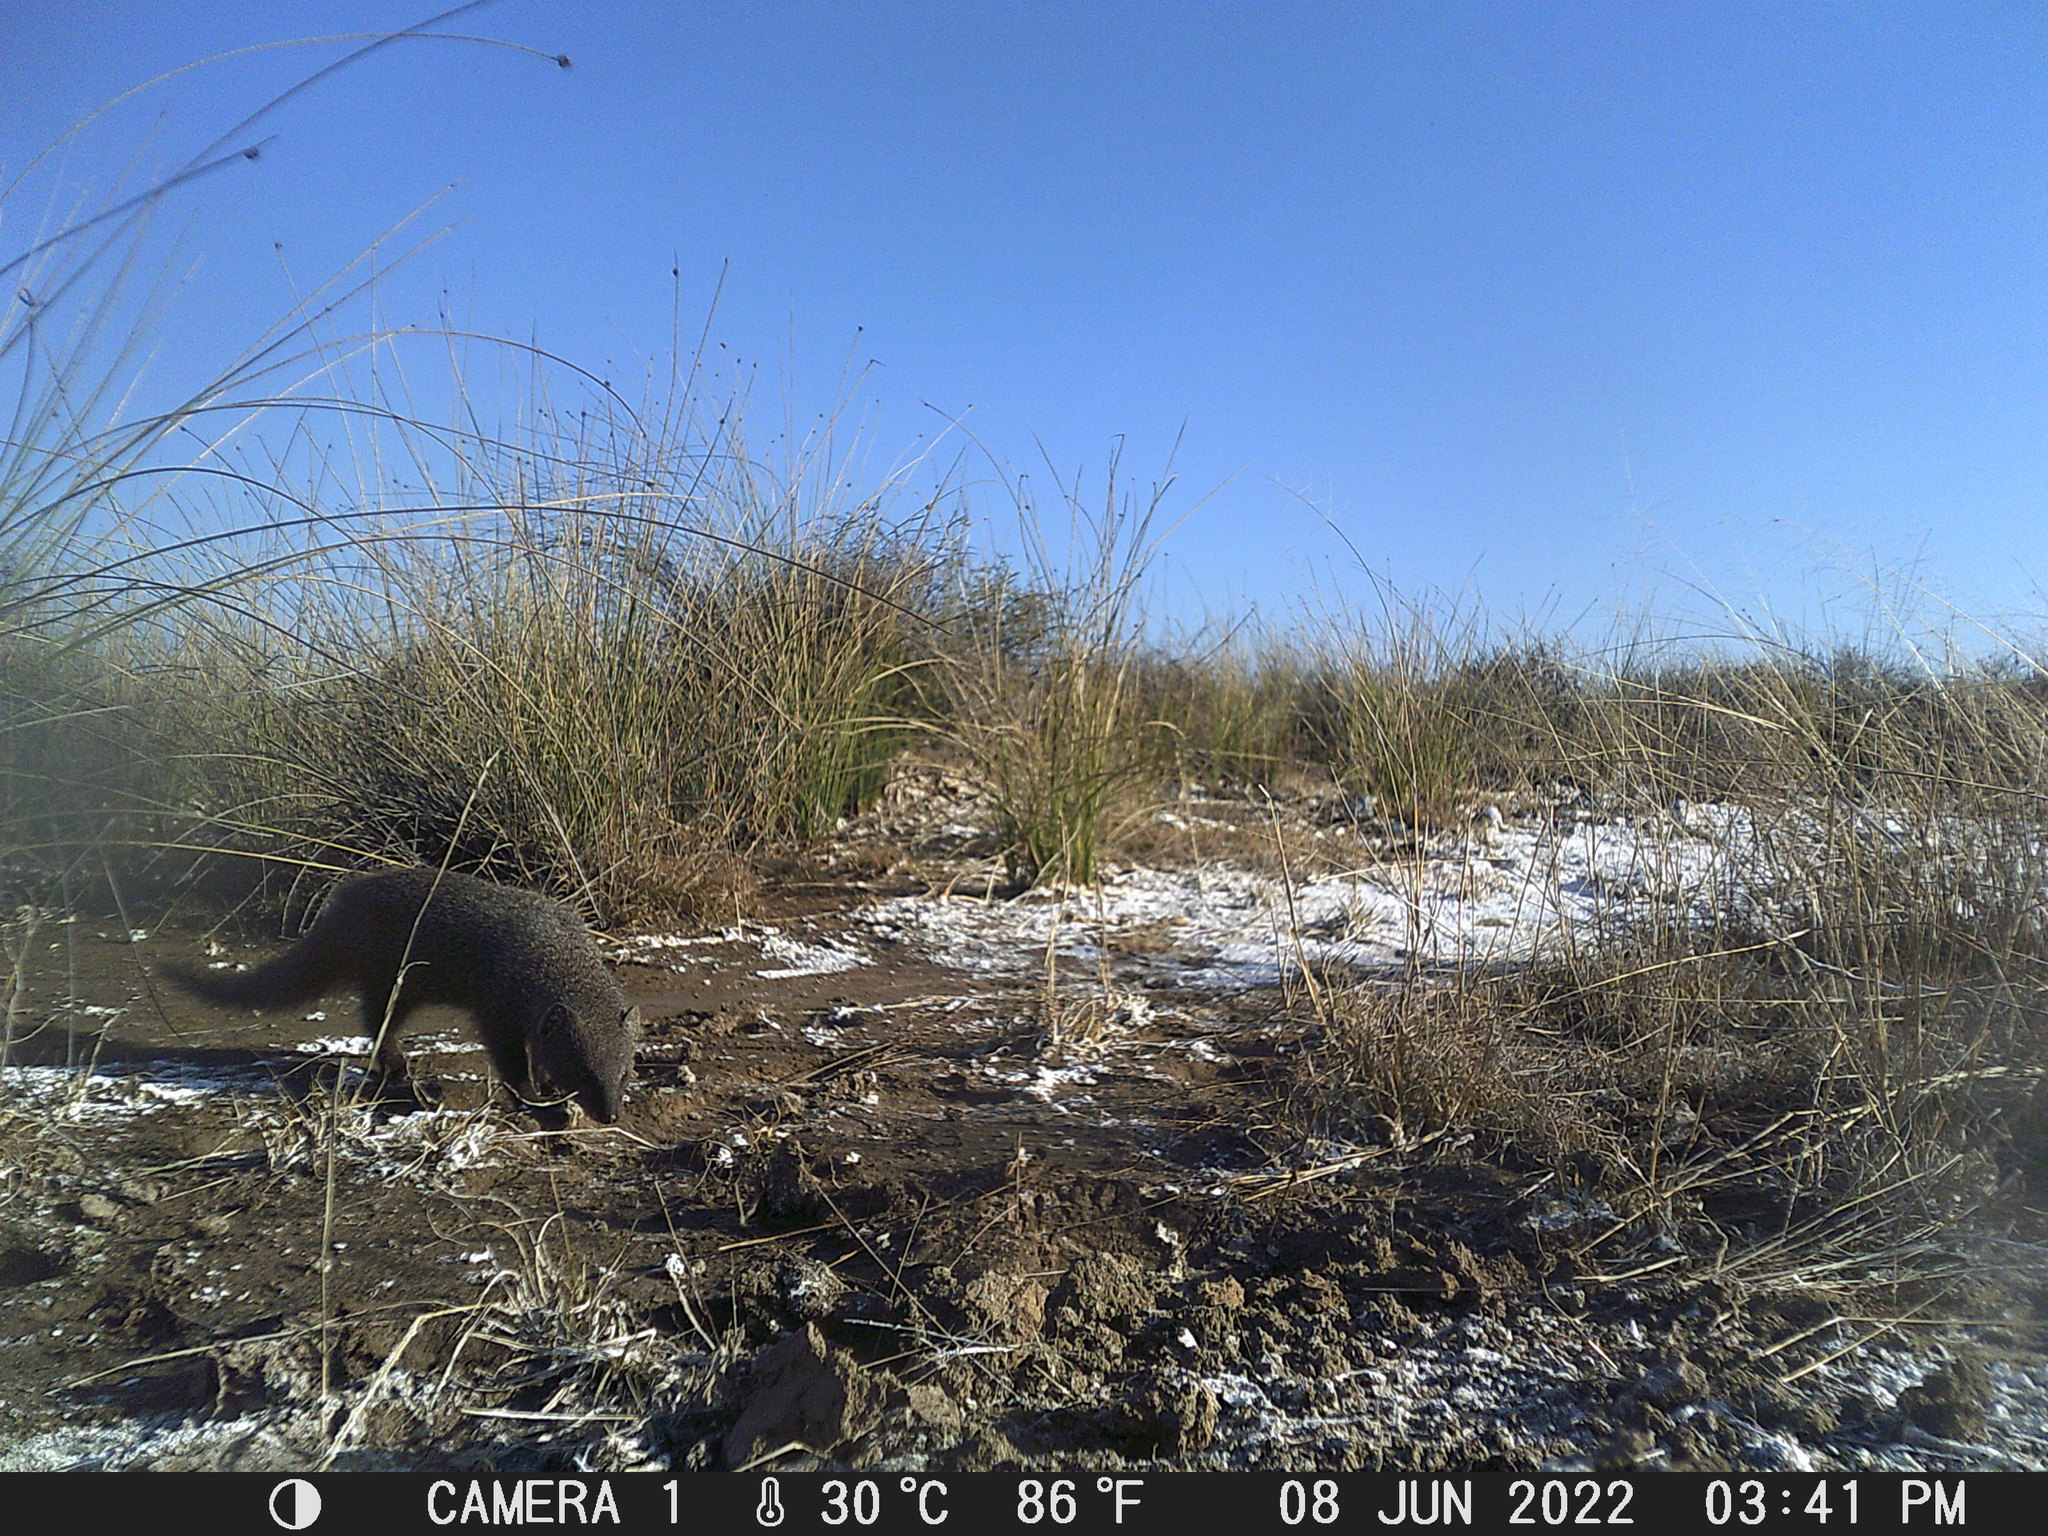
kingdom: Animalia
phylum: Chordata
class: Mammalia
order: Carnivora
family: Herpestidae
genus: Galerella
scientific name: Galerella pulverulenta
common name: Cape gray mongoose
